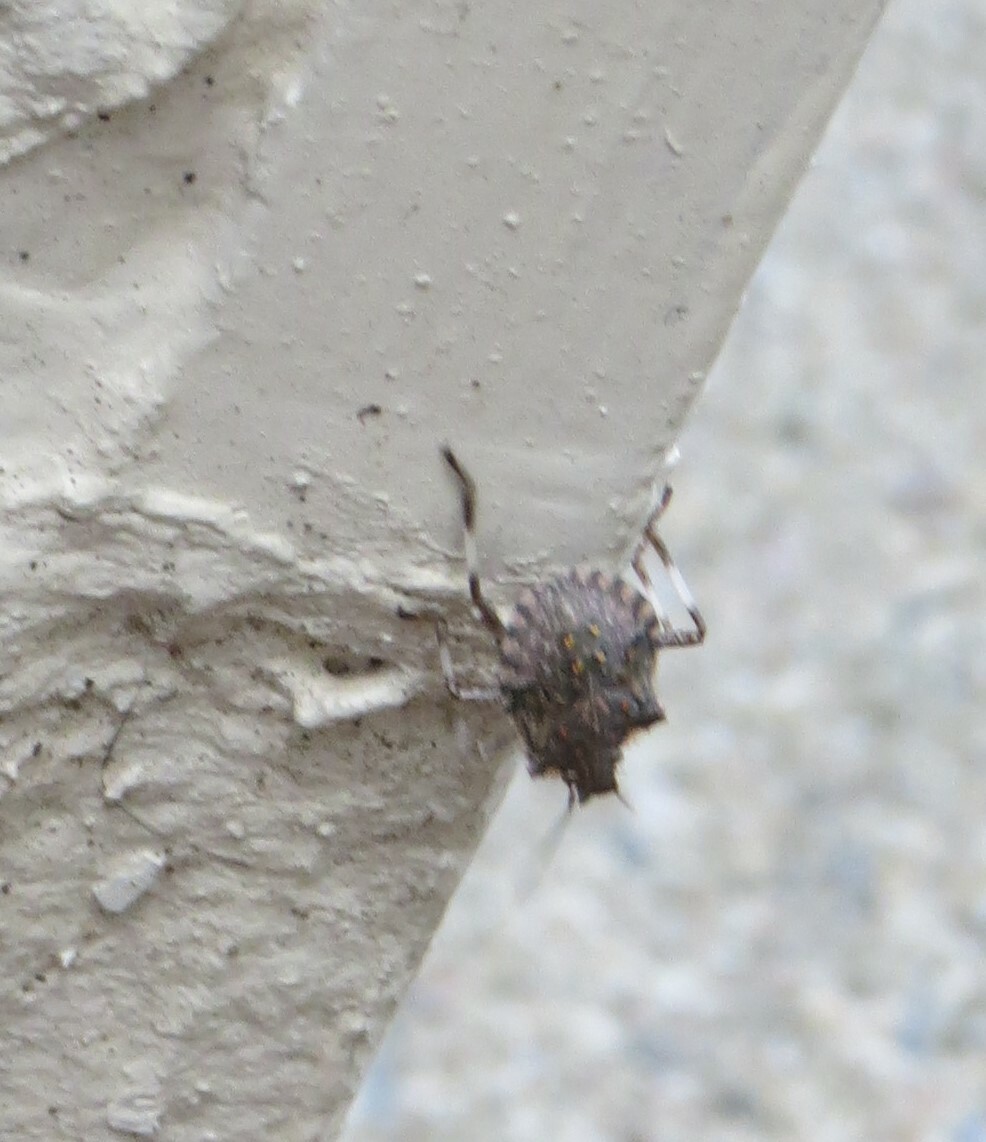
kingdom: Animalia
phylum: Arthropoda
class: Insecta
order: Hemiptera
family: Pentatomidae
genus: Halyomorpha
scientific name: Halyomorpha halys
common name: Brown marmorated stink bug
